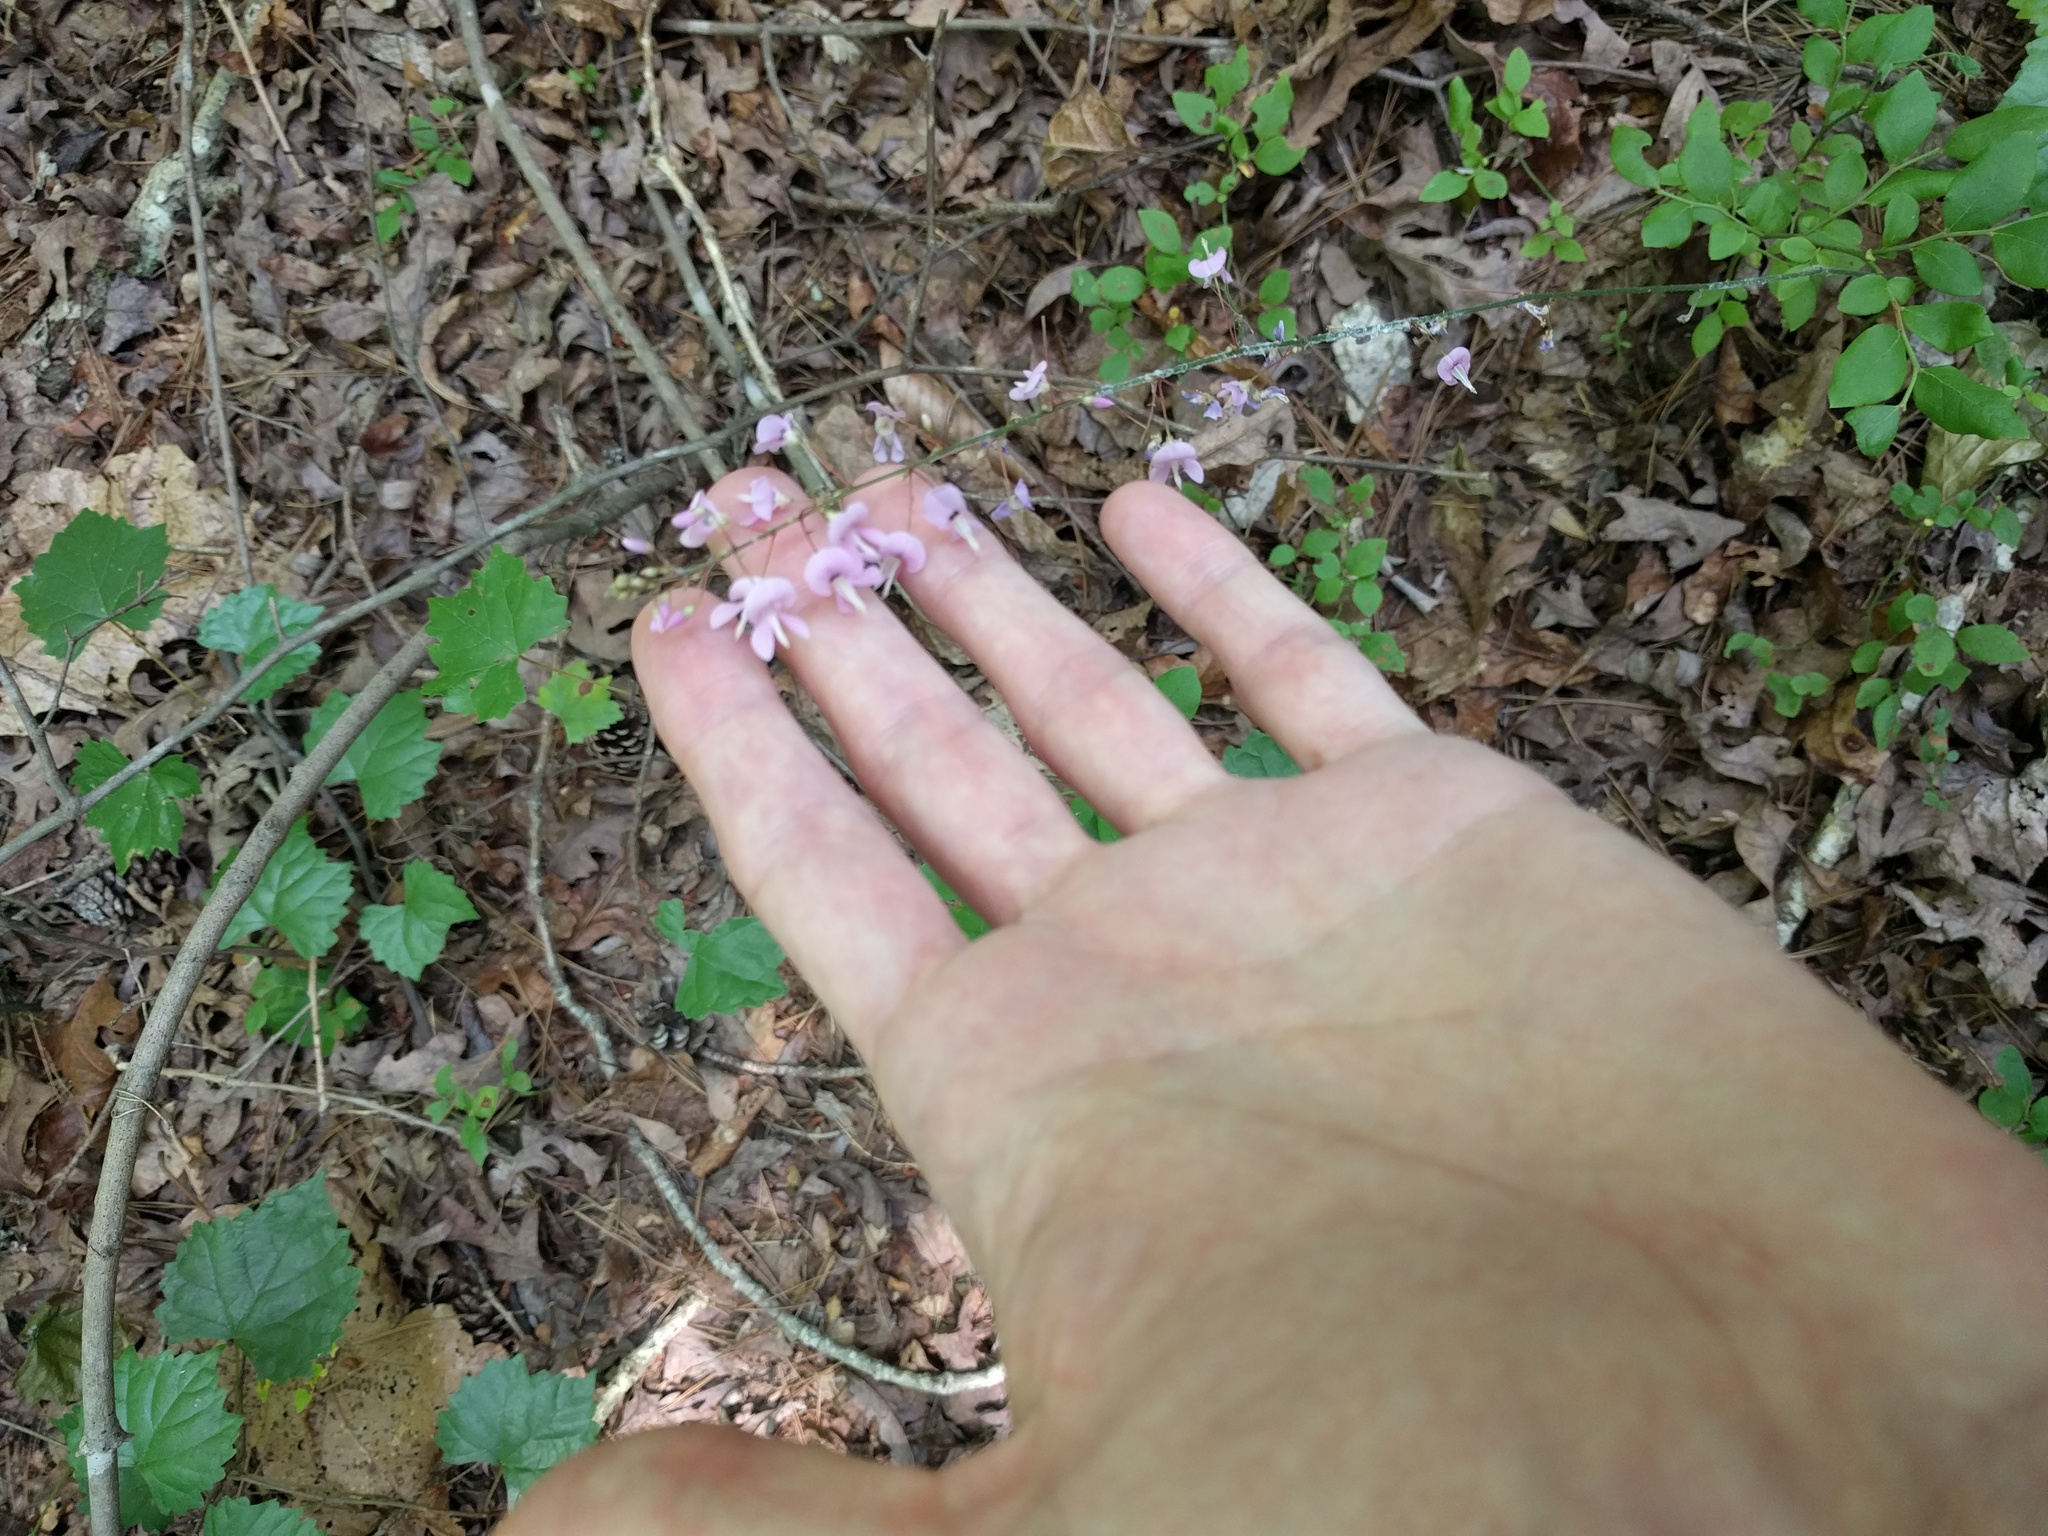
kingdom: Plantae
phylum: Tracheophyta
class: Magnoliopsida
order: Fabales
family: Fabaceae
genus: Hylodesmum
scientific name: Hylodesmum nudiflorum
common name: Bare-stemmed tick-trefoil
